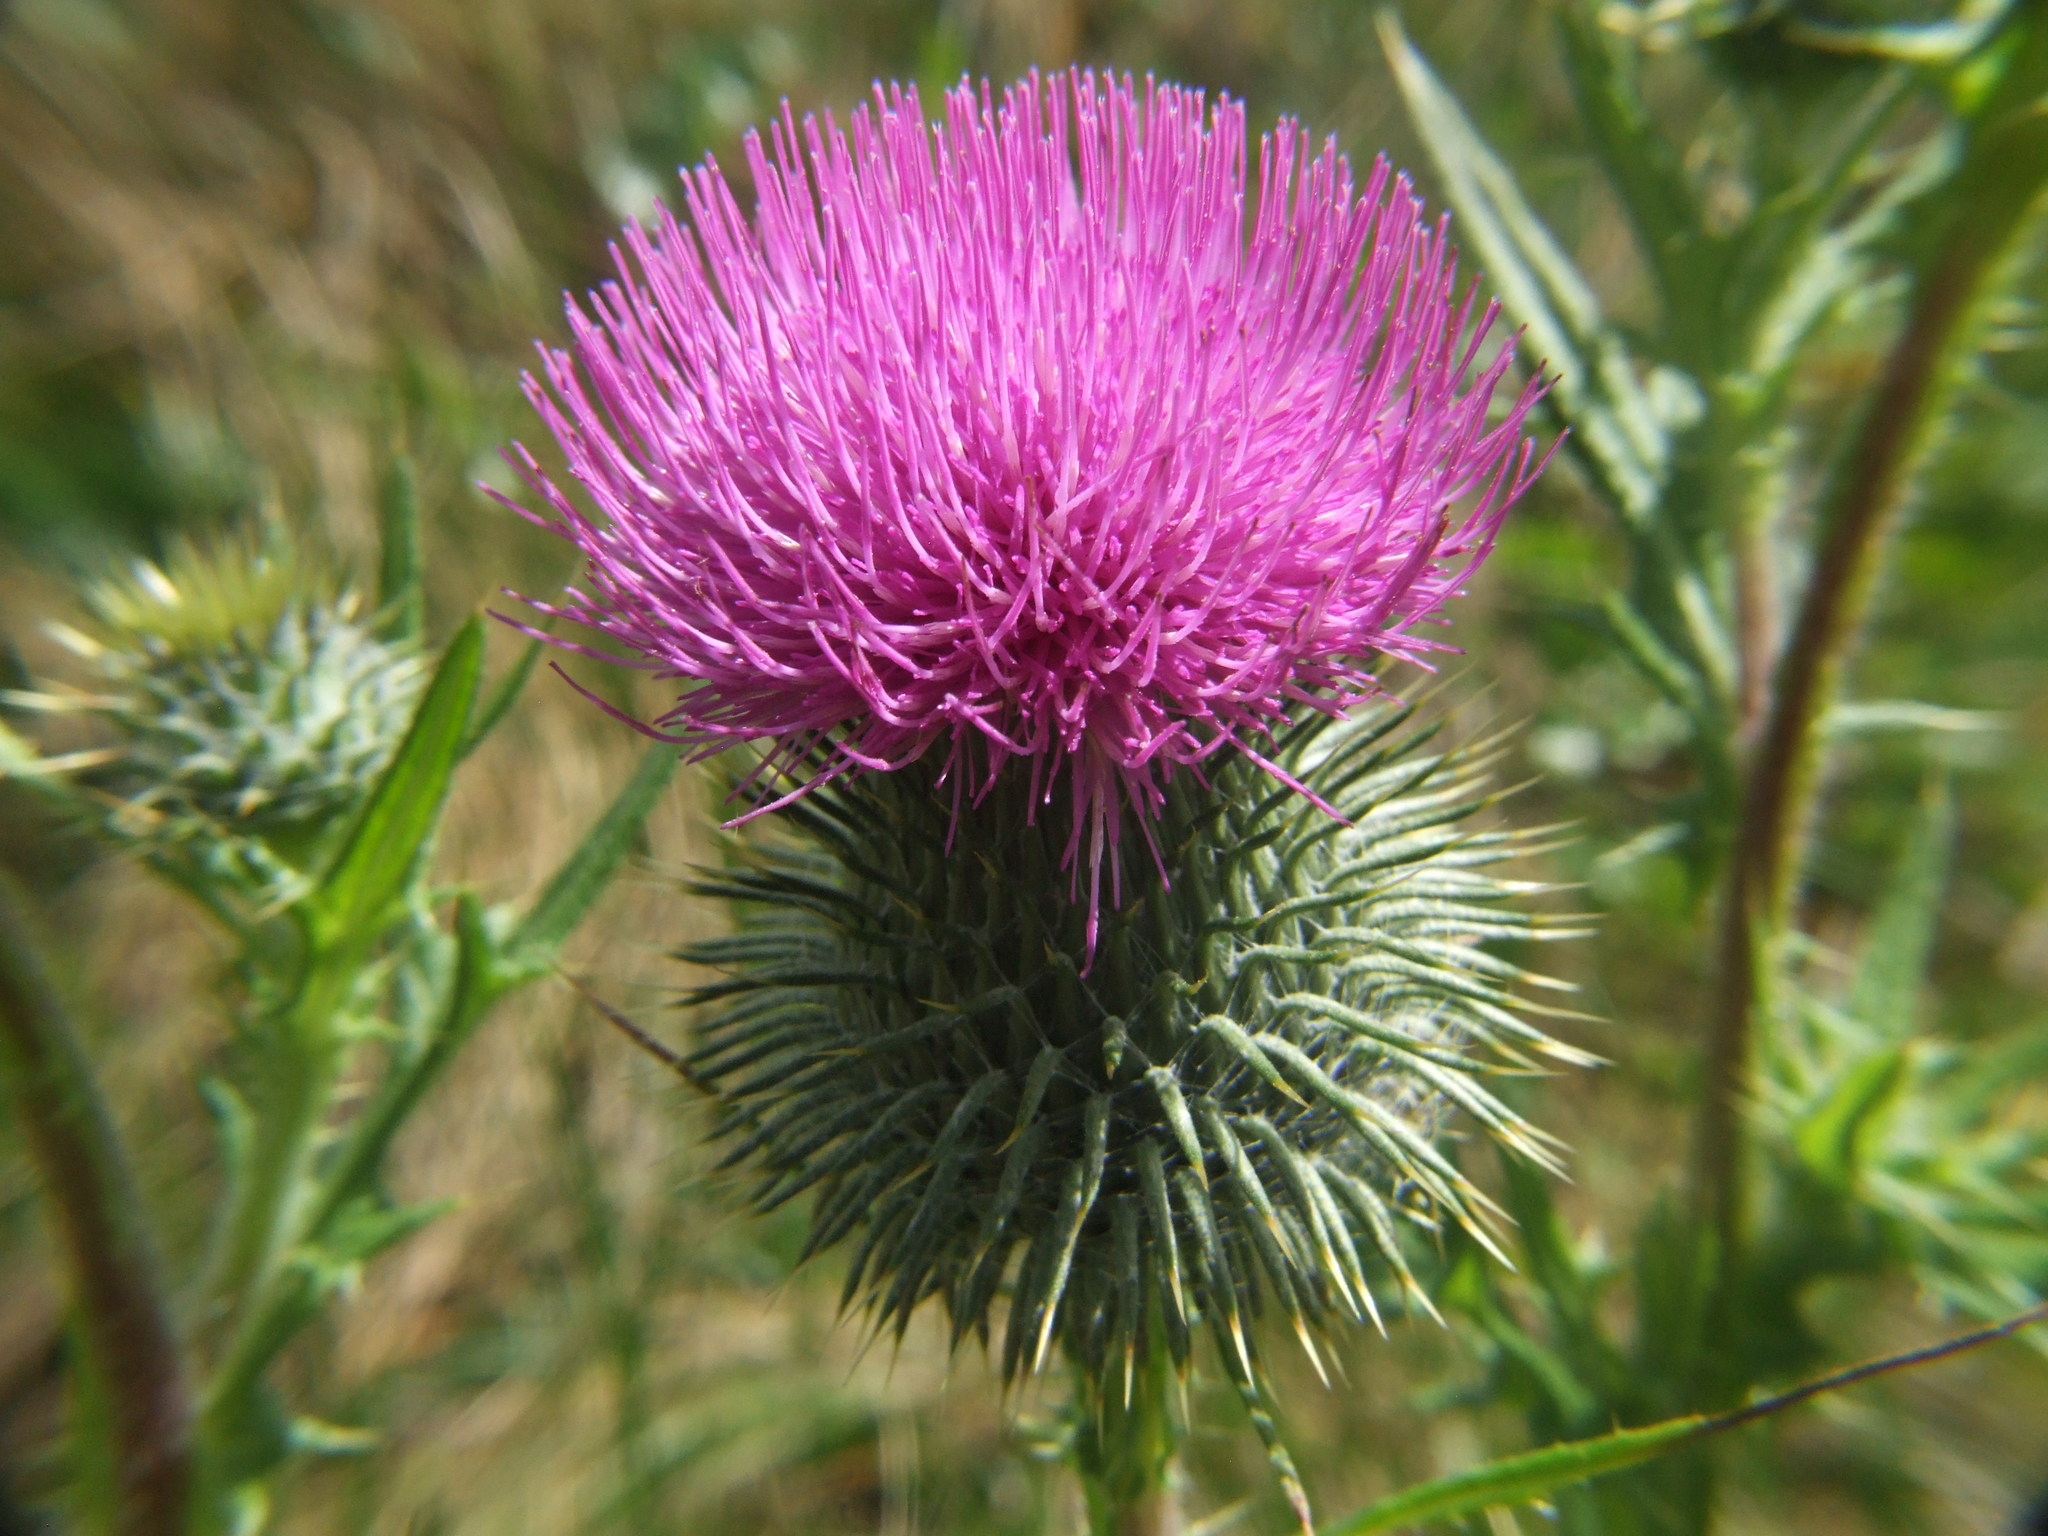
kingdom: Plantae
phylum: Tracheophyta
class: Magnoliopsida
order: Asterales
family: Asteraceae
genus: Cirsium
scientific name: Cirsium vulgare
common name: Bull thistle
